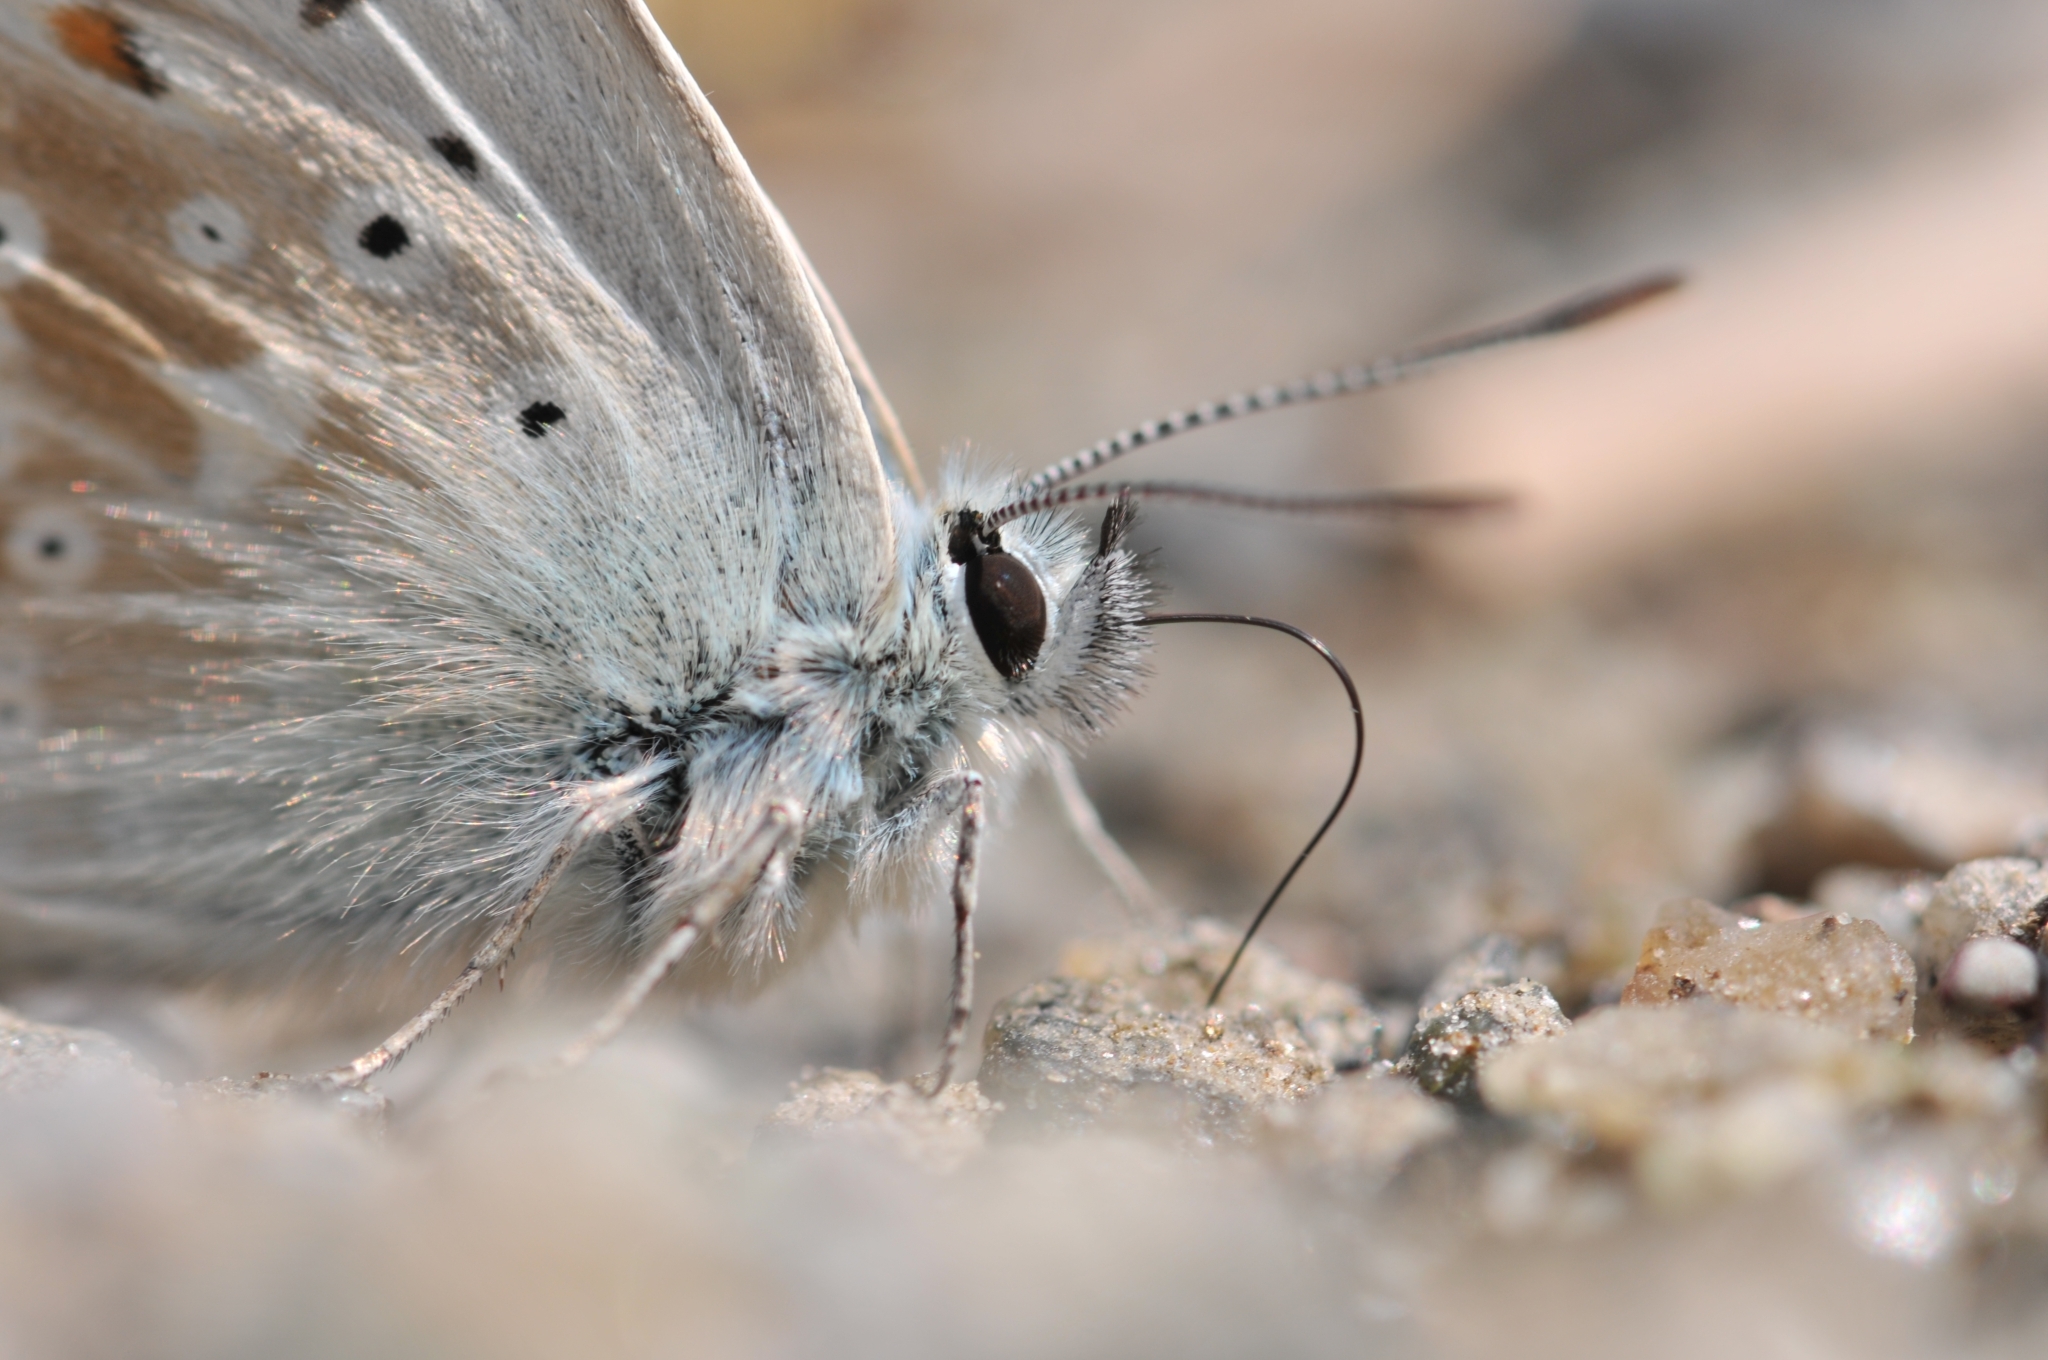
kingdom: Animalia
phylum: Arthropoda
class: Insecta
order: Lepidoptera
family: Lycaenidae
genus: Lysandra
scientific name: Lysandra coridon
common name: Chalkhill blue
